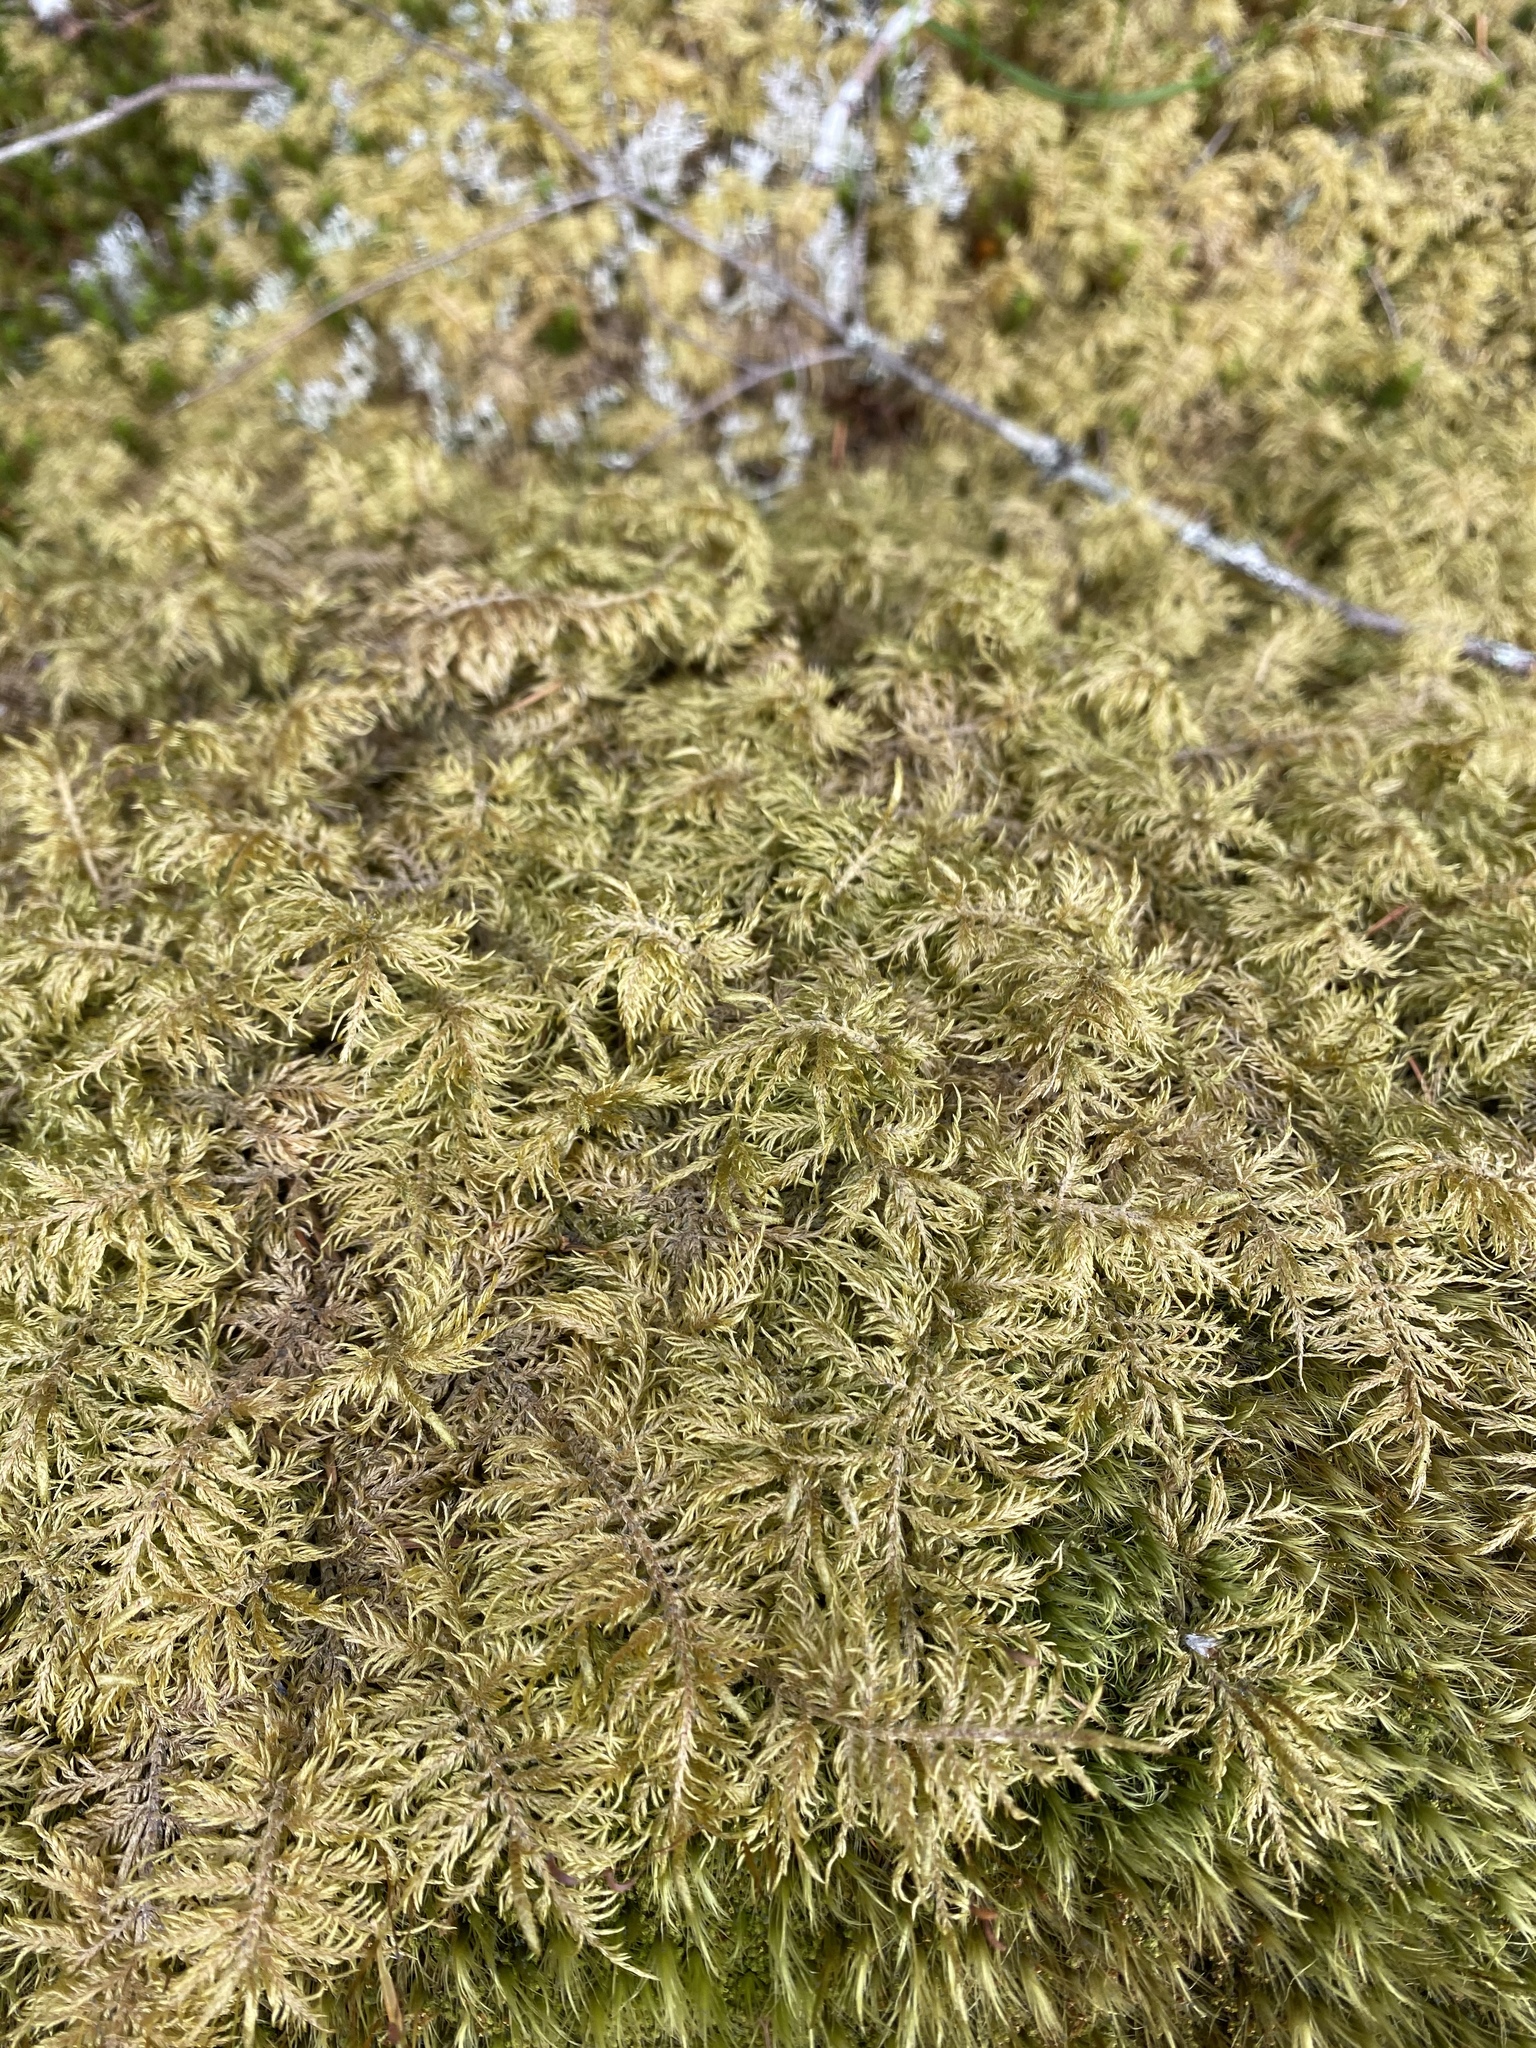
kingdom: Plantae
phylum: Bryophyta
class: Bryopsida
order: Hypnales
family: Hylocomiaceae
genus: Hylocomium
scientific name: Hylocomium splendens
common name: Stairstep moss
